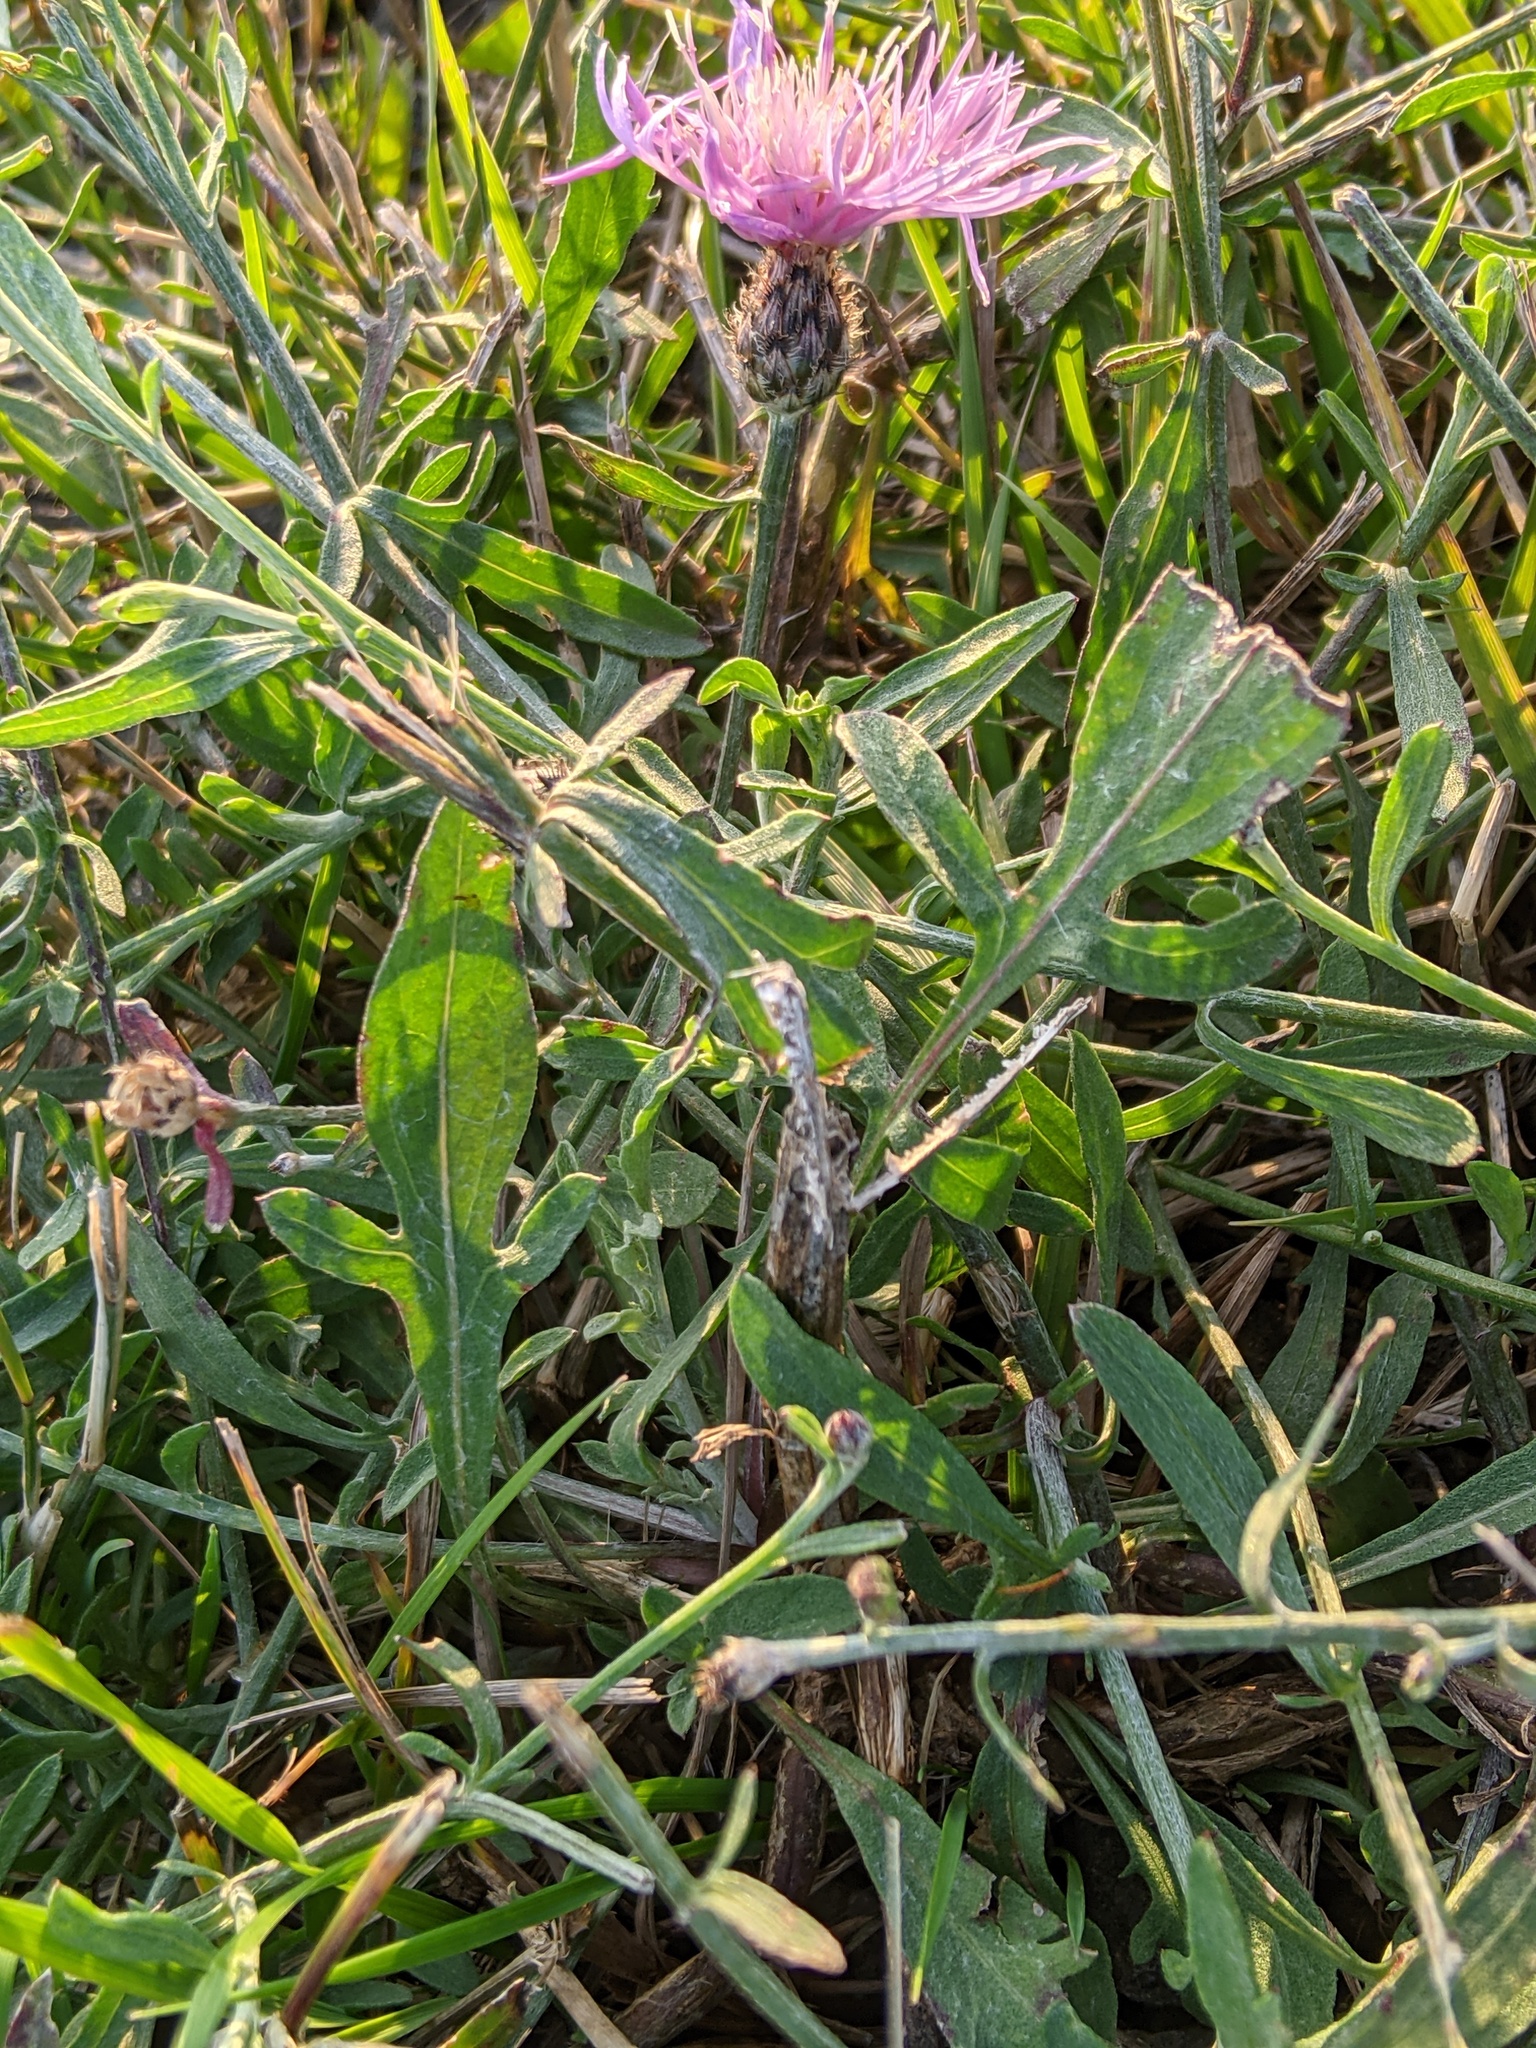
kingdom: Plantae
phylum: Tracheophyta
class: Magnoliopsida
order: Asterales
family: Asteraceae
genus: Centaurea
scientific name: Centaurea stoebe
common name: Spotted knapweed
